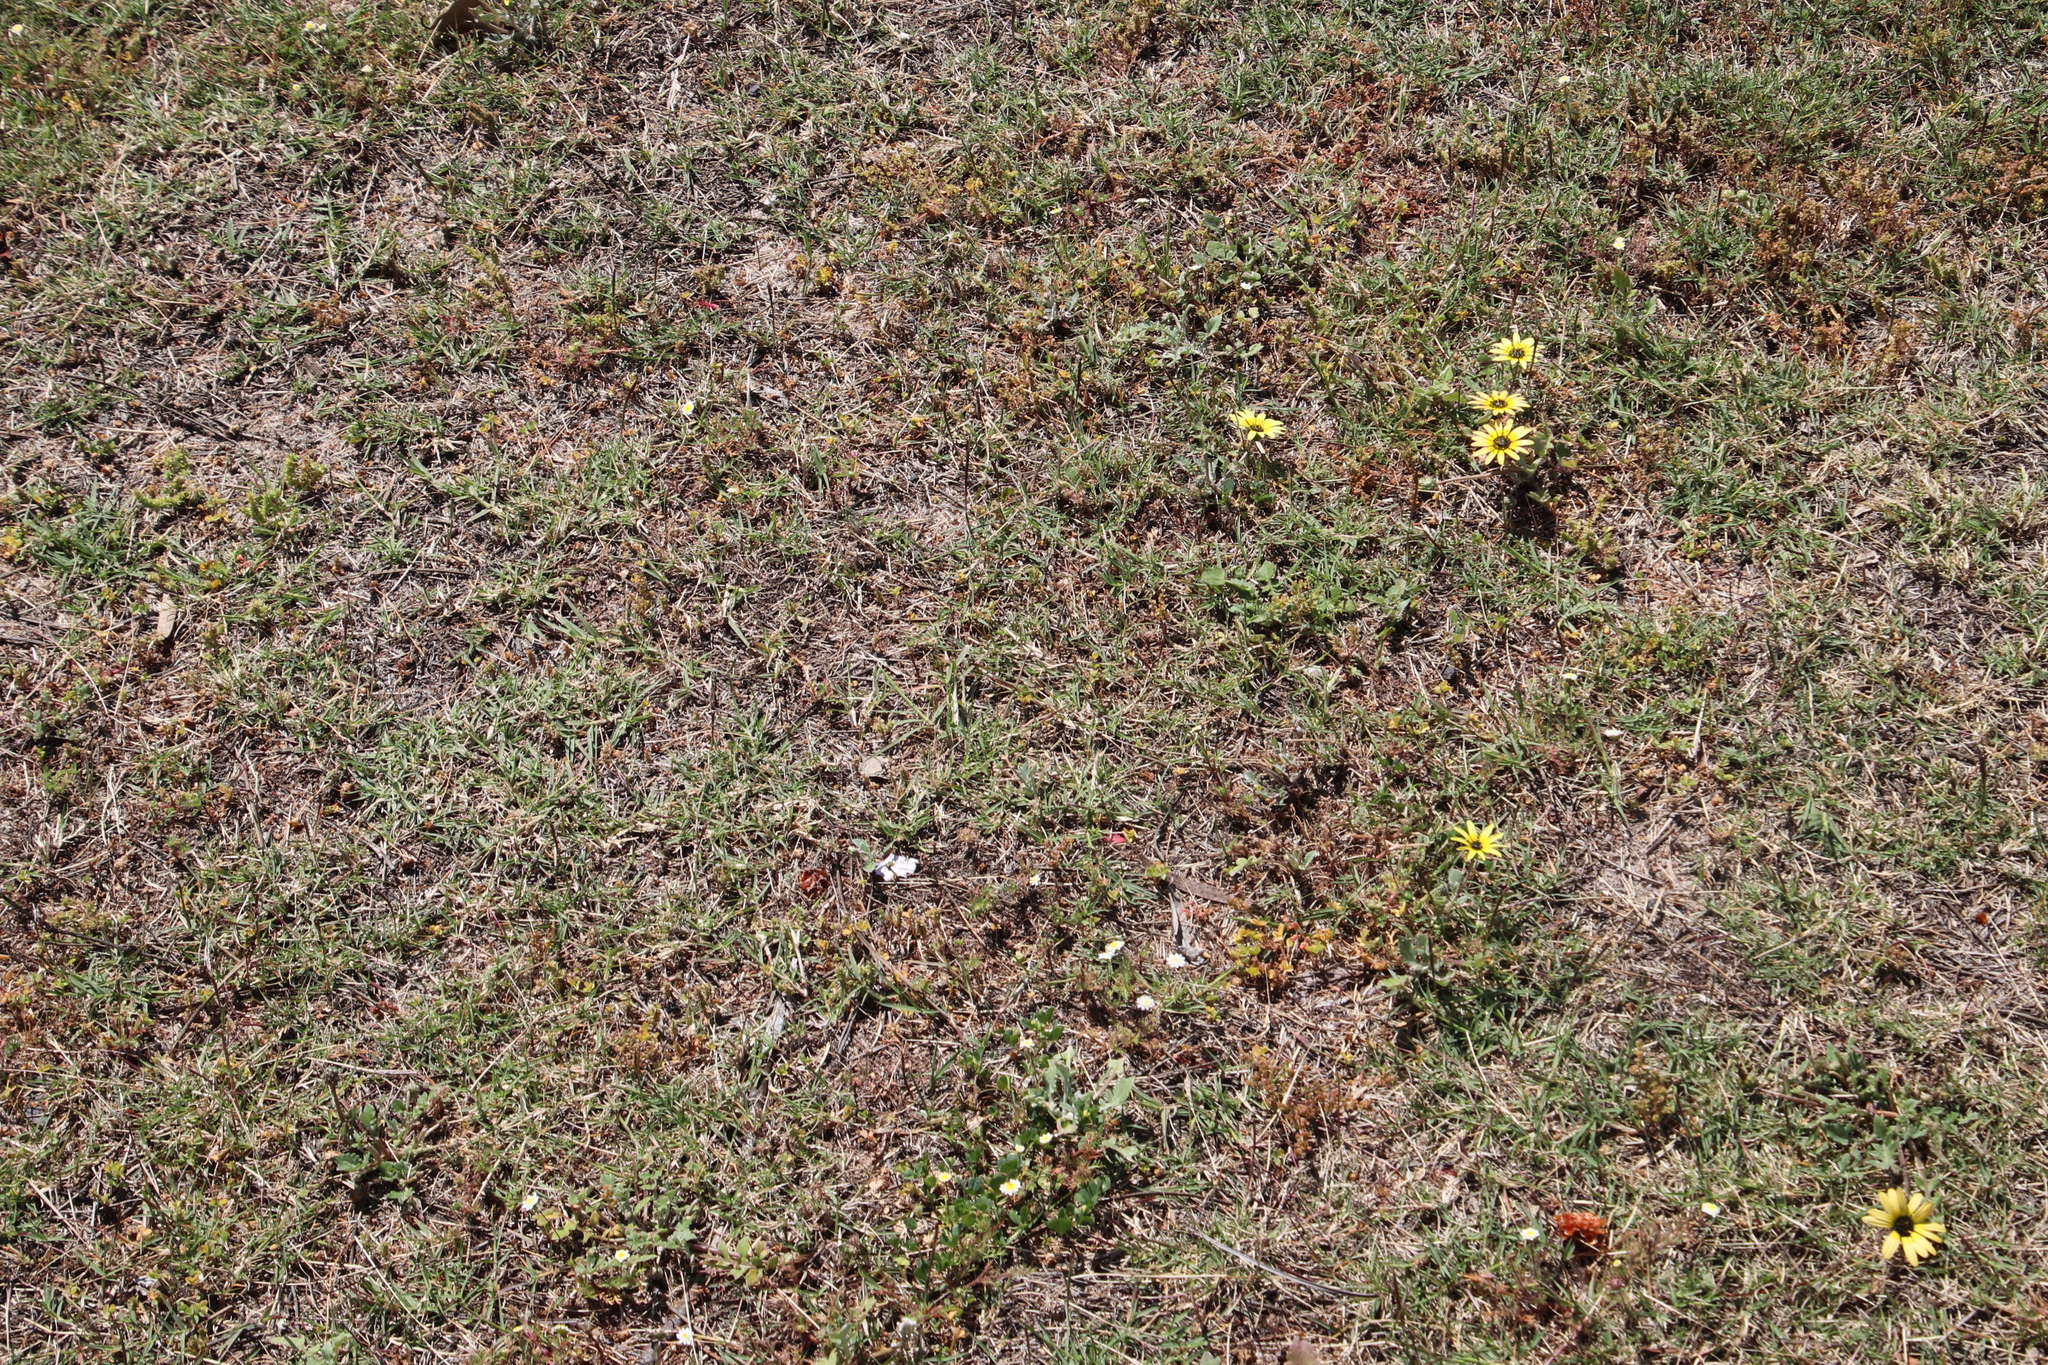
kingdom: Plantae
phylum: Tracheophyta
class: Liliopsida
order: Poales
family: Poaceae
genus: Cynodon
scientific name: Cynodon dactylon
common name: Bermuda grass
